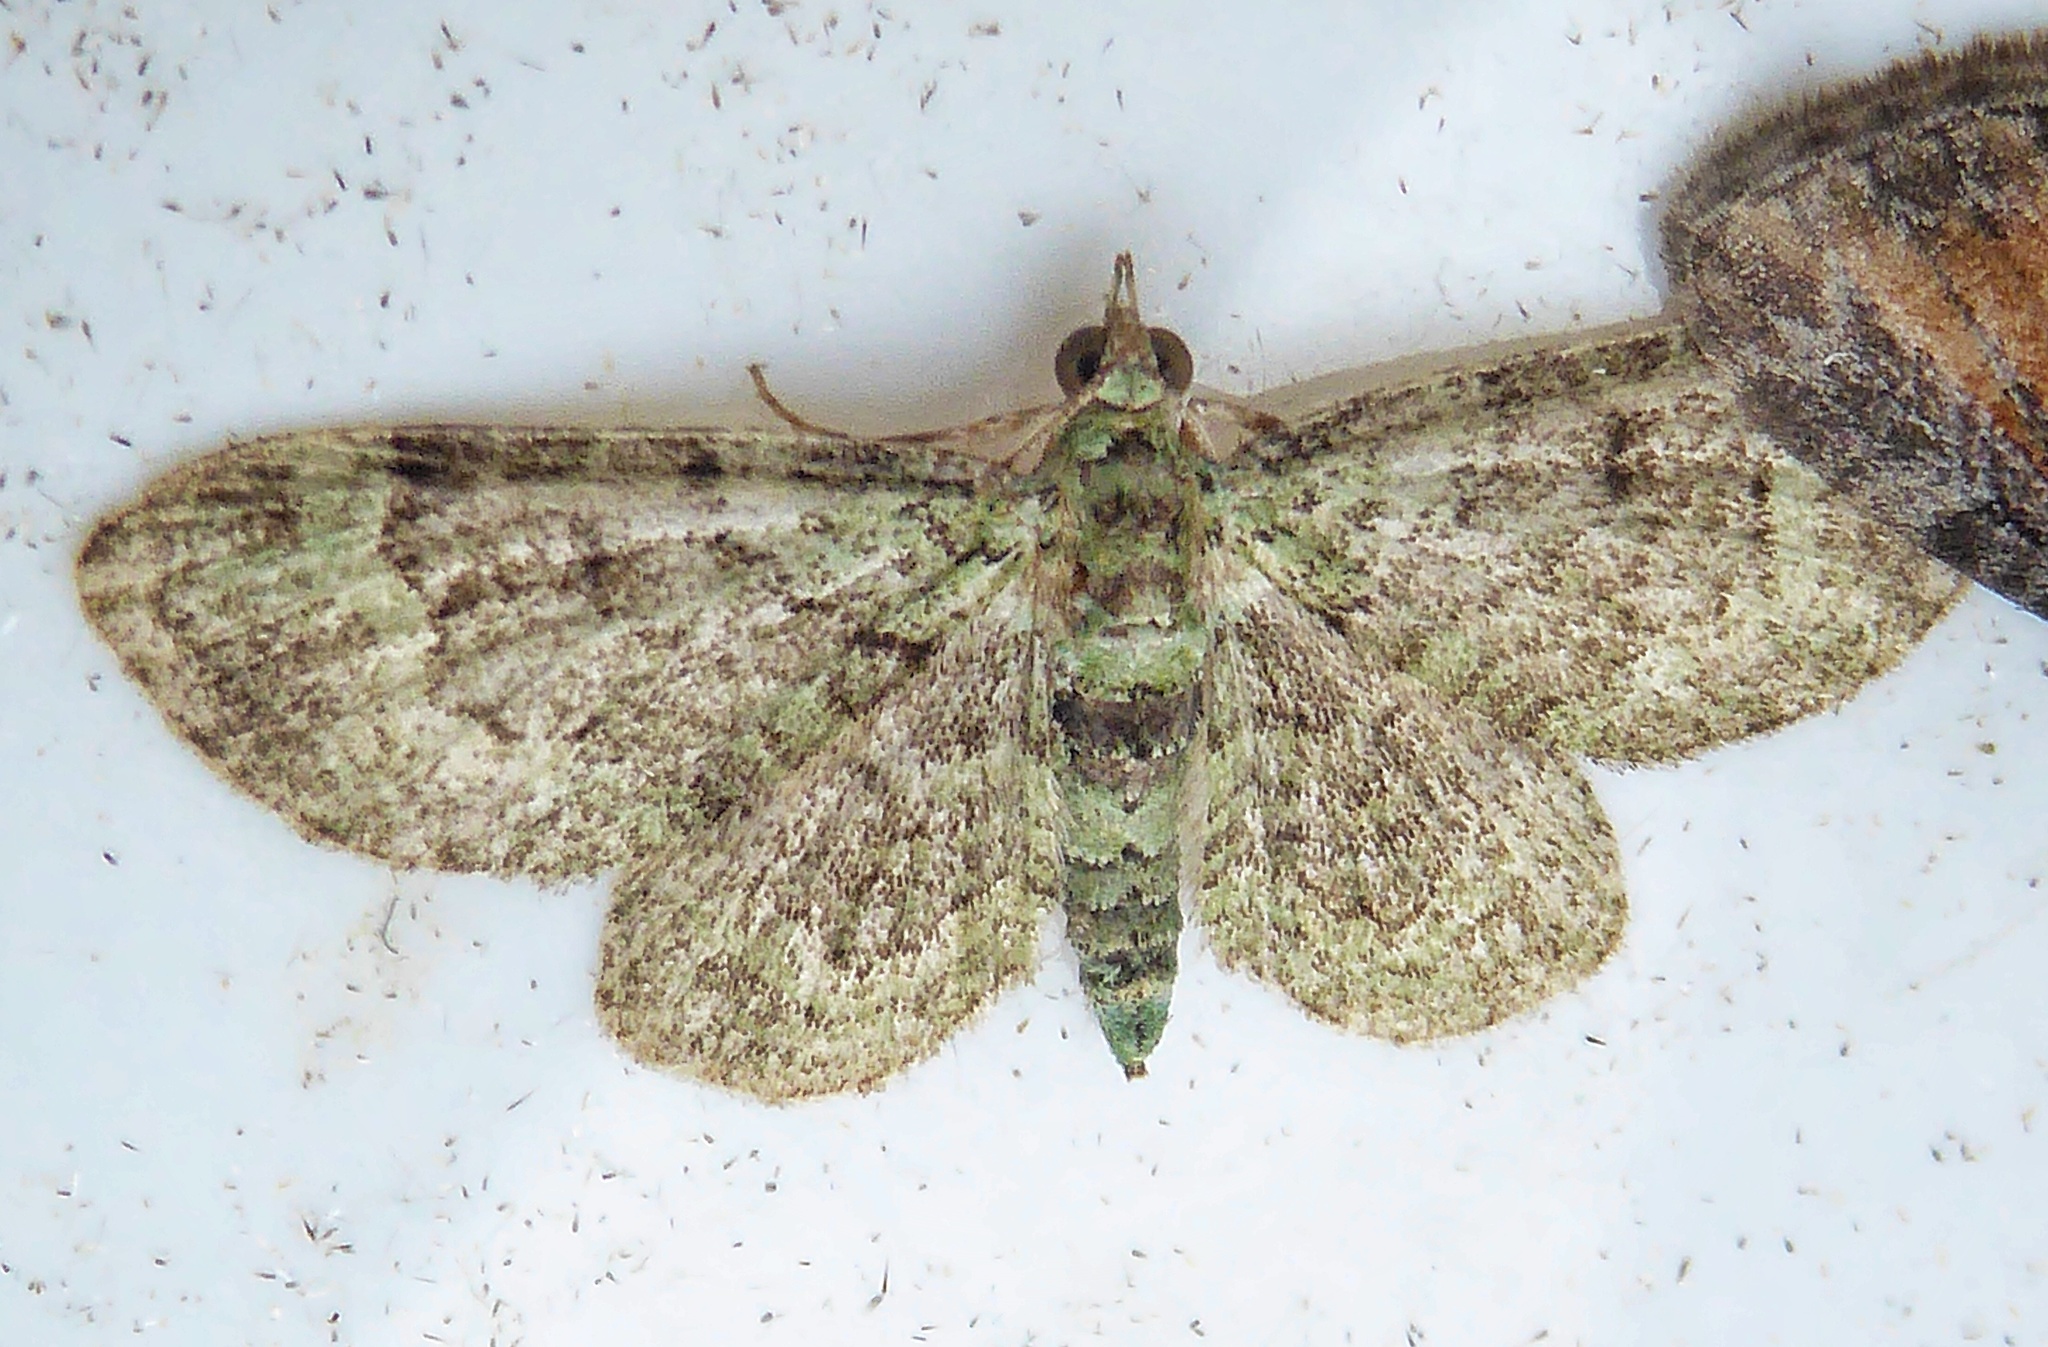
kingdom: Animalia
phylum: Arthropoda
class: Insecta
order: Lepidoptera
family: Geometridae
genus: Pasiphila
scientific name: Pasiphila rectangulata
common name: Green pug
